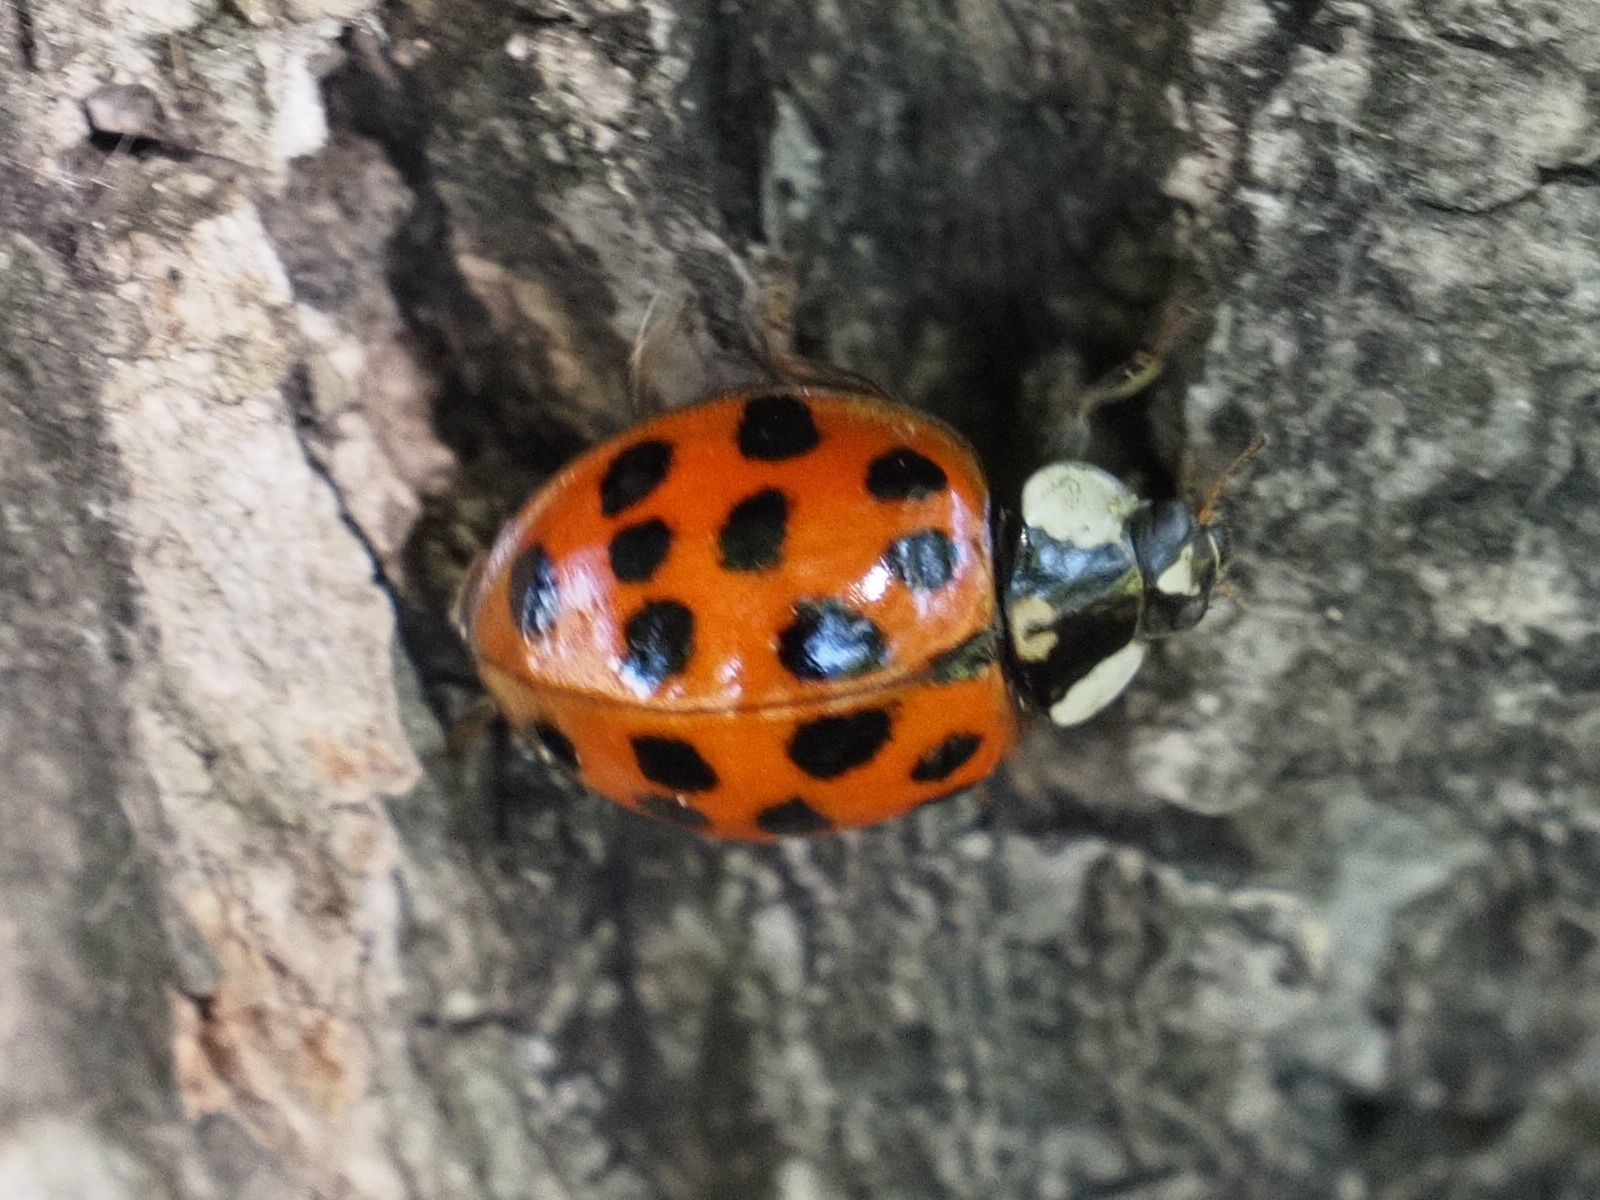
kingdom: Animalia
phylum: Arthropoda
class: Insecta
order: Coleoptera
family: Coccinellidae
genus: Harmonia
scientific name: Harmonia axyridis
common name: Harlequin ladybird
